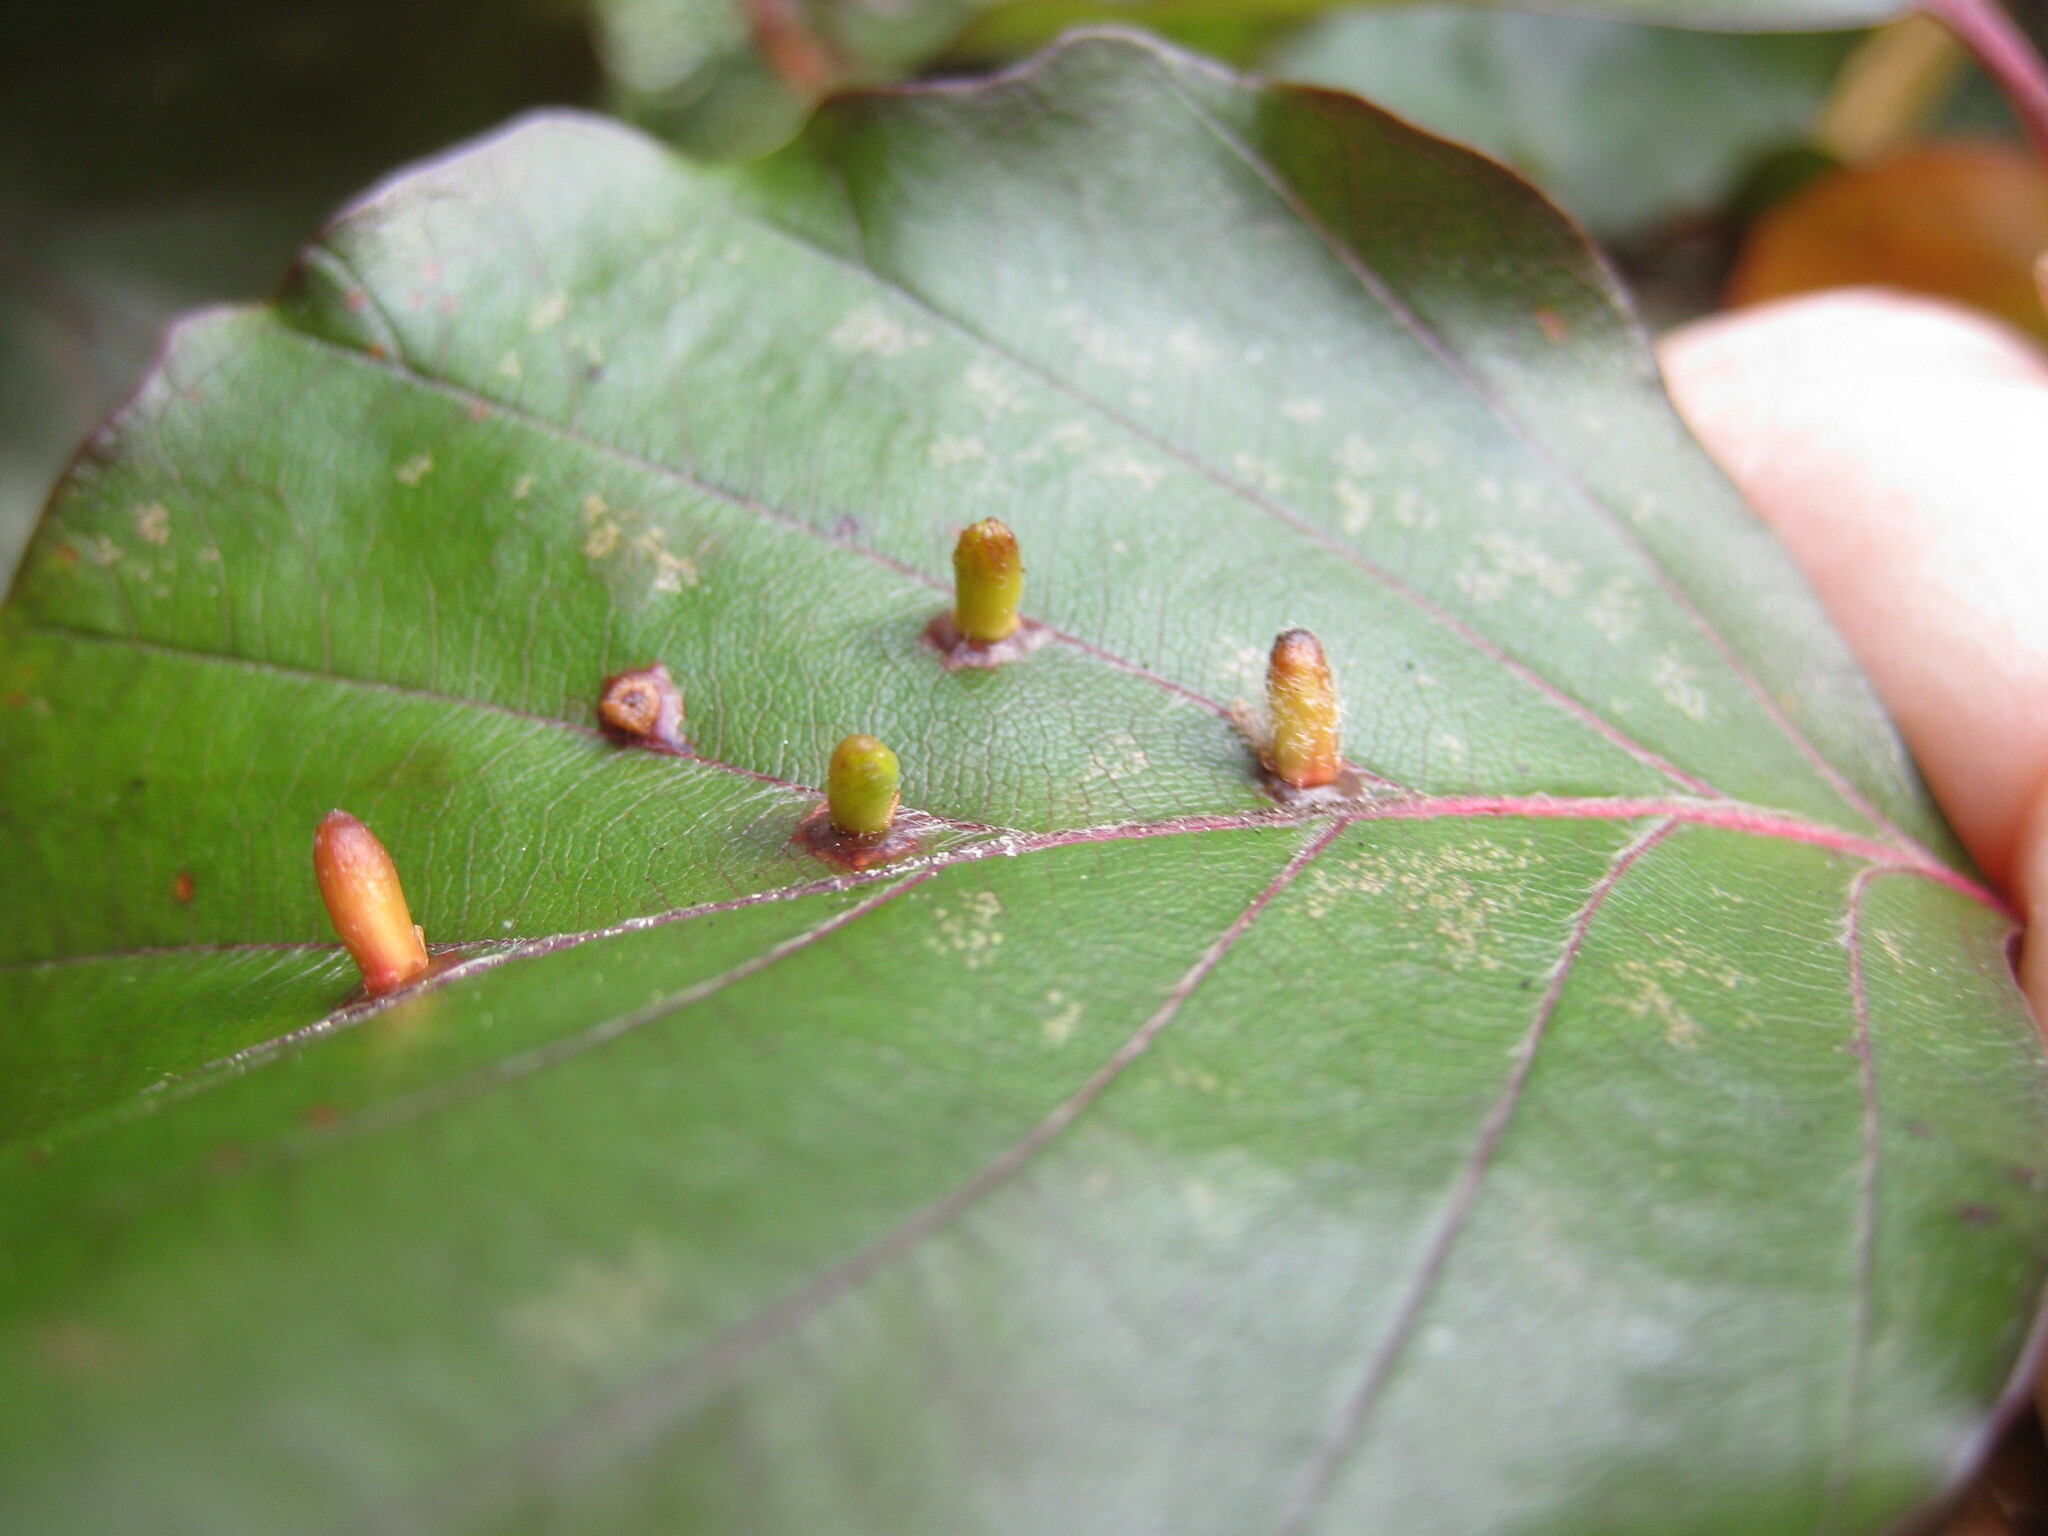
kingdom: Animalia
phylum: Arthropoda
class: Insecta
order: Diptera
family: Cecidomyiidae
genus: Hartigiola
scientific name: Hartigiola annulipes
